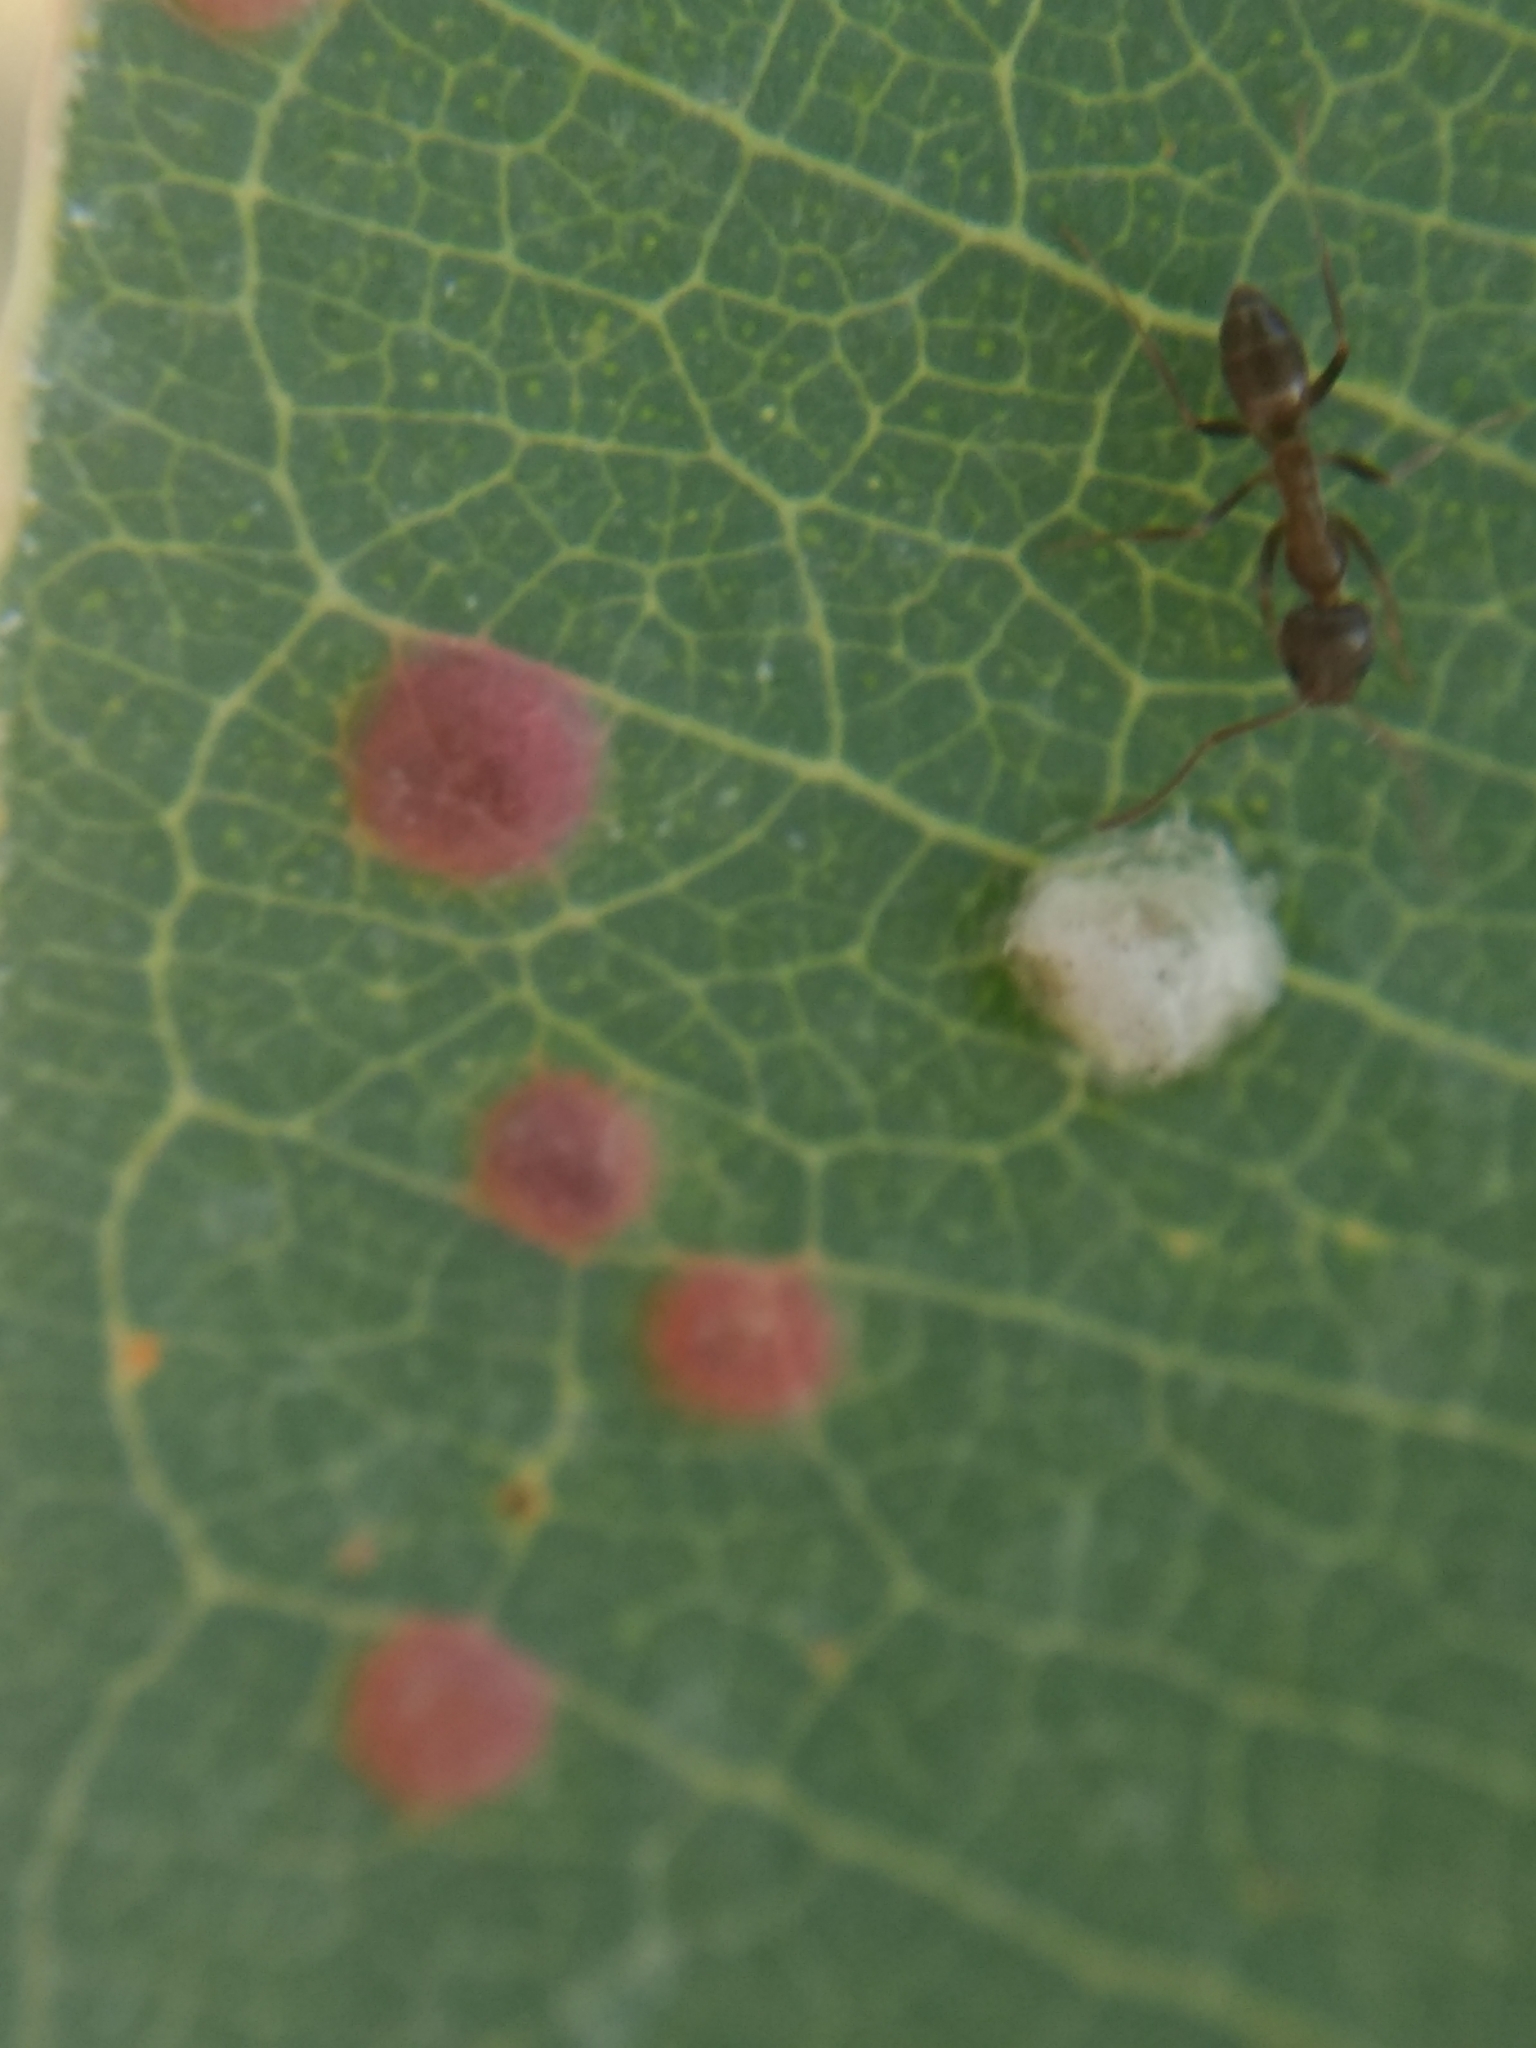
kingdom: Animalia
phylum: Arthropoda
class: Insecta
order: Hymenoptera
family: Formicidae
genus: Linepithema
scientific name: Linepithema humile
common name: Argentine ant
